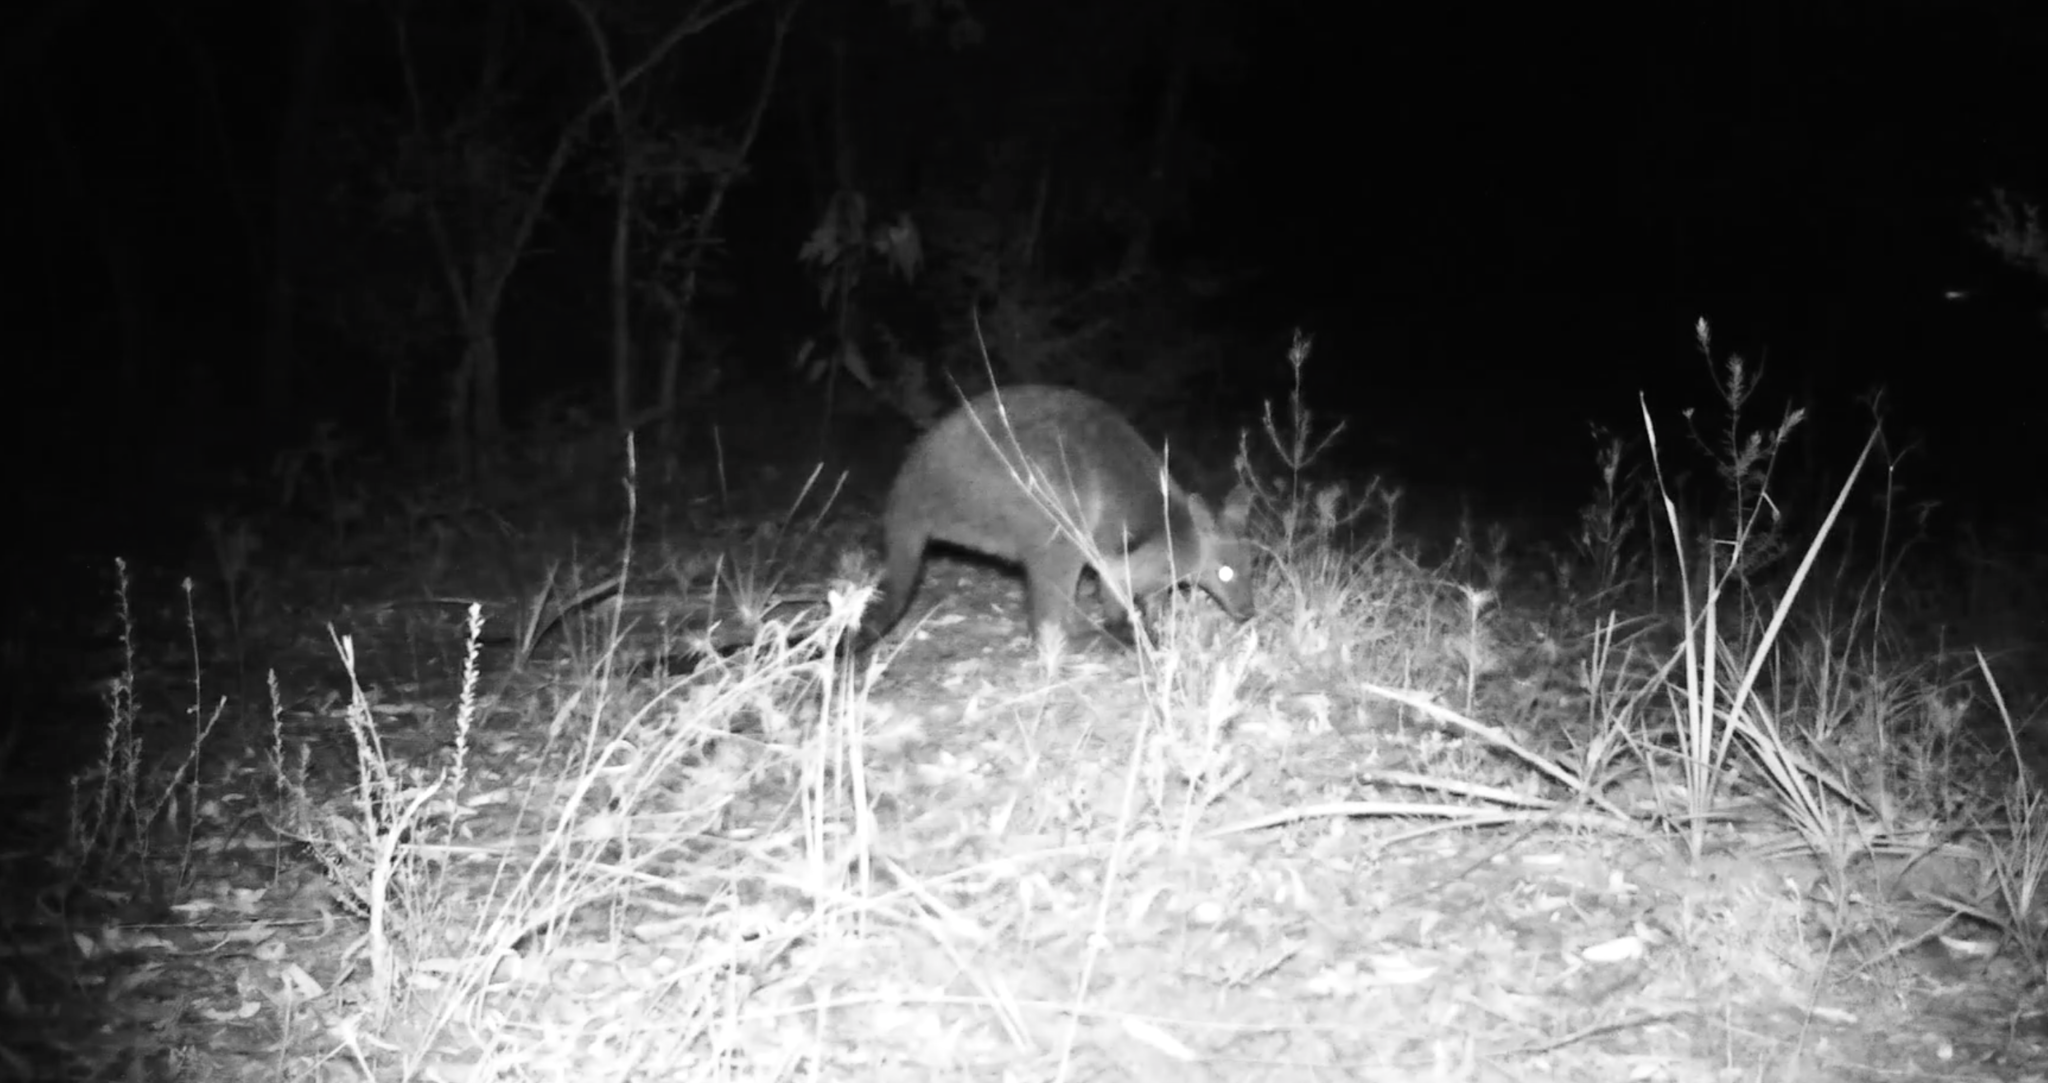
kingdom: Animalia
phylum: Chordata
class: Mammalia
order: Diprotodontia
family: Macropodidae
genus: Wallabia
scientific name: Wallabia bicolor
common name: Swamp wallaby
